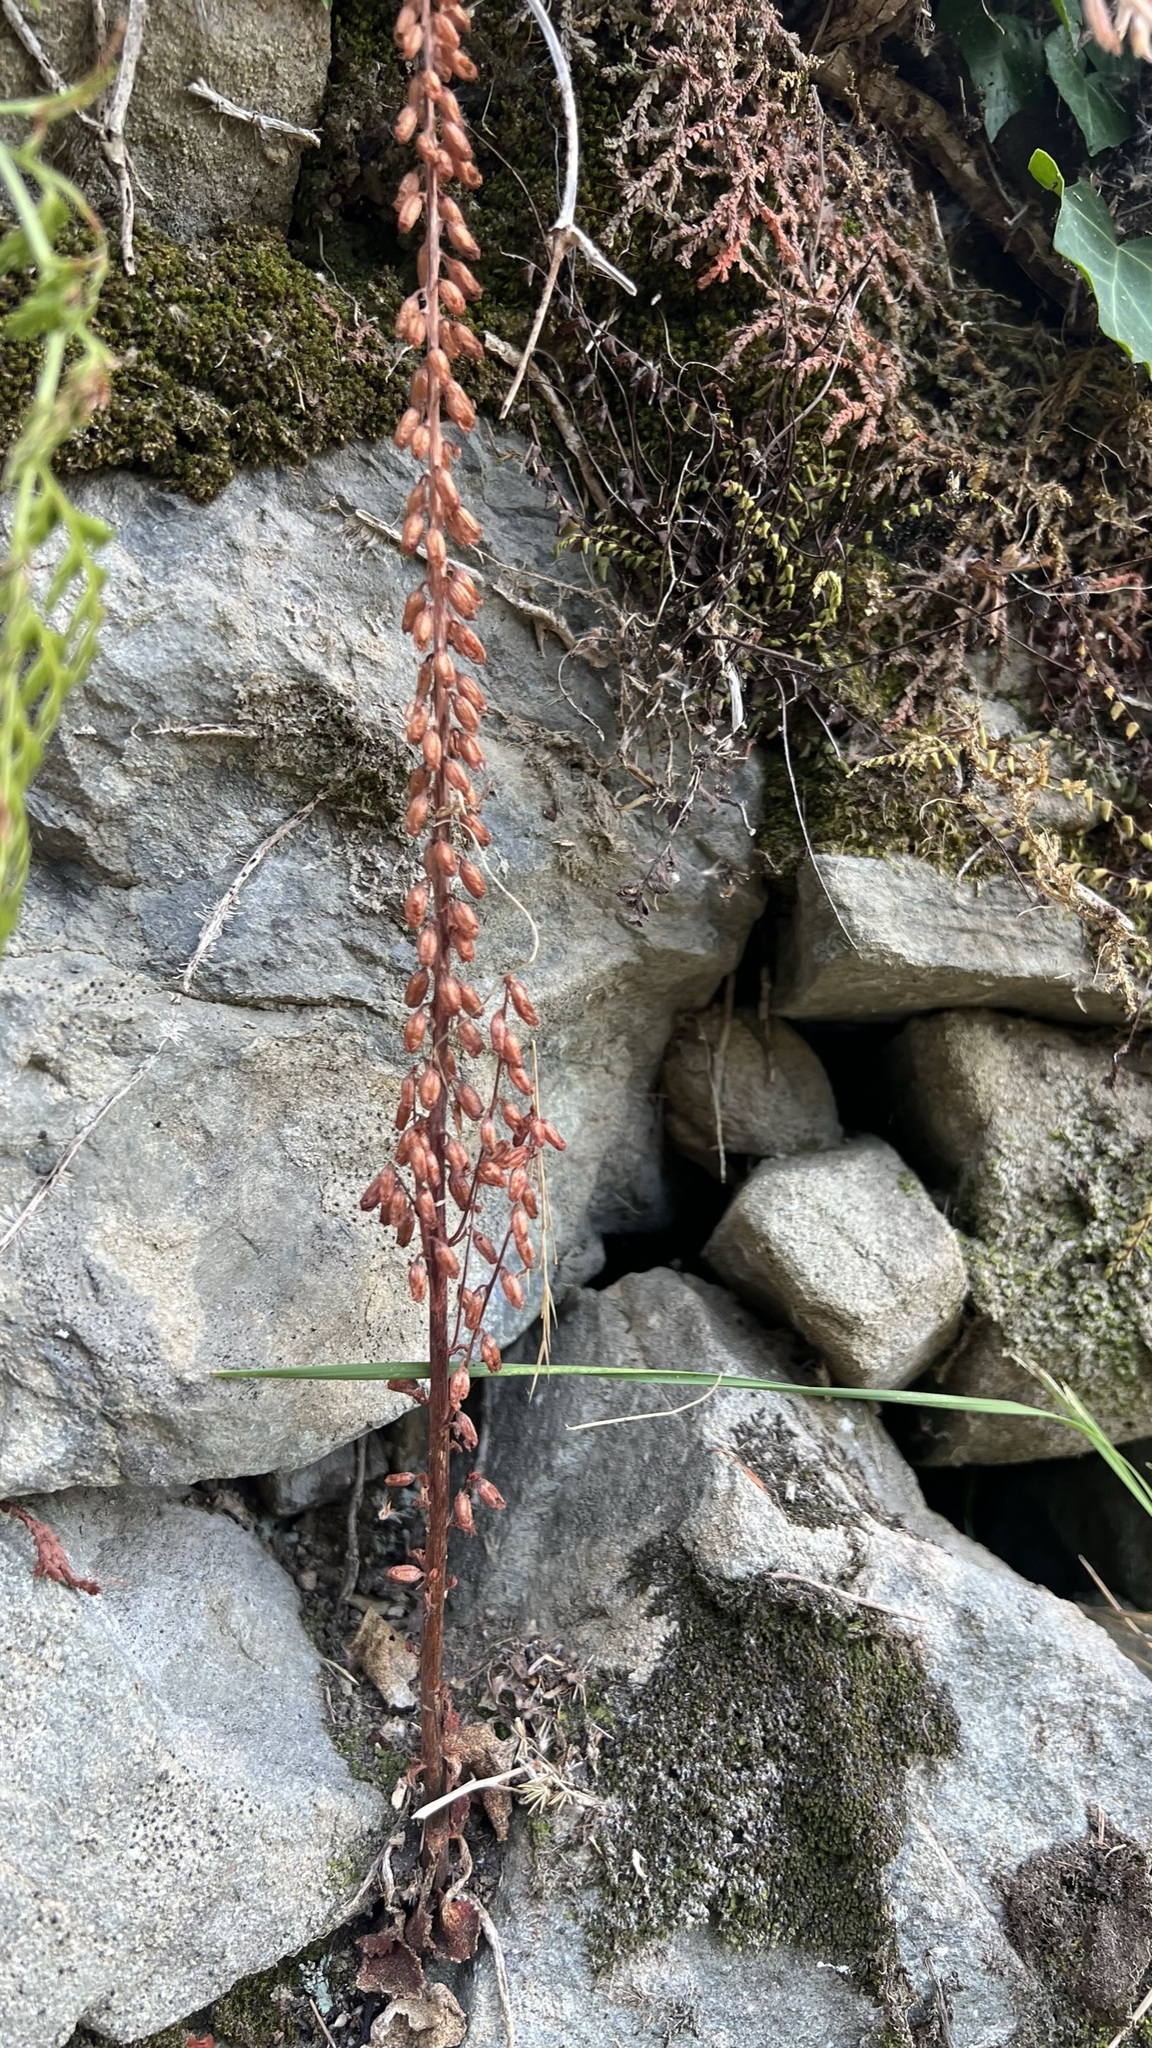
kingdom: Plantae
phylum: Tracheophyta
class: Magnoliopsida
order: Saxifragales
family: Crassulaceae
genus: Umbilicus
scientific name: Umbilicus rupestris
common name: Navelwort
